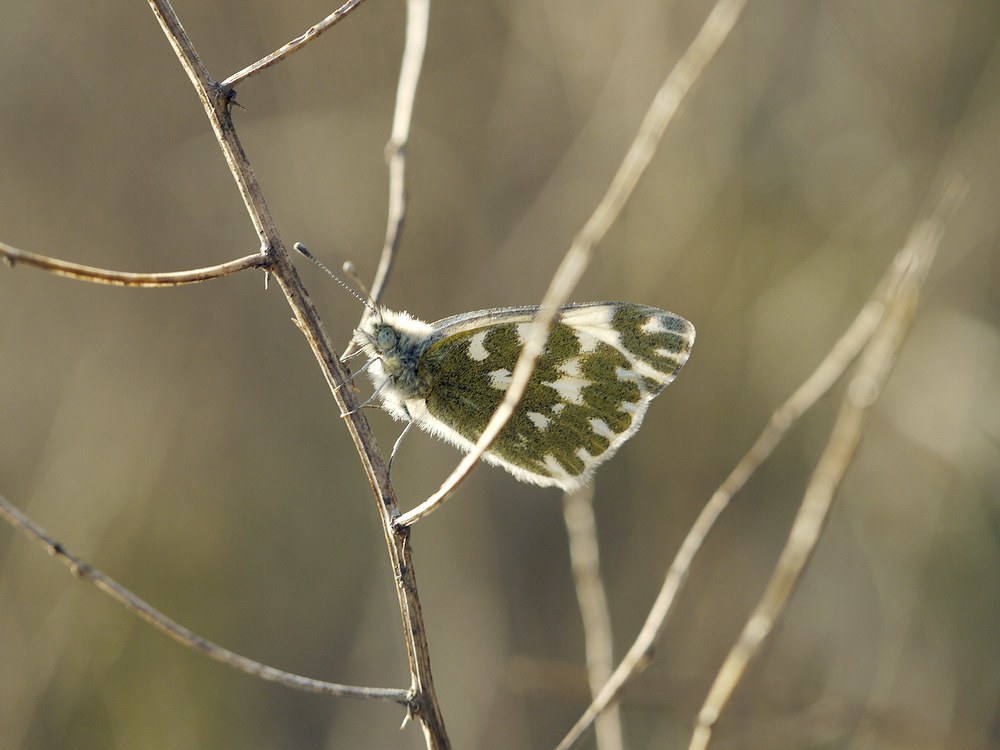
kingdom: Animalia
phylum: Arthropoda
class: Insecta
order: Lepidoptera
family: Pieridae
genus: Pontia
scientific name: Pontia edusa
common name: Eastern bath white
